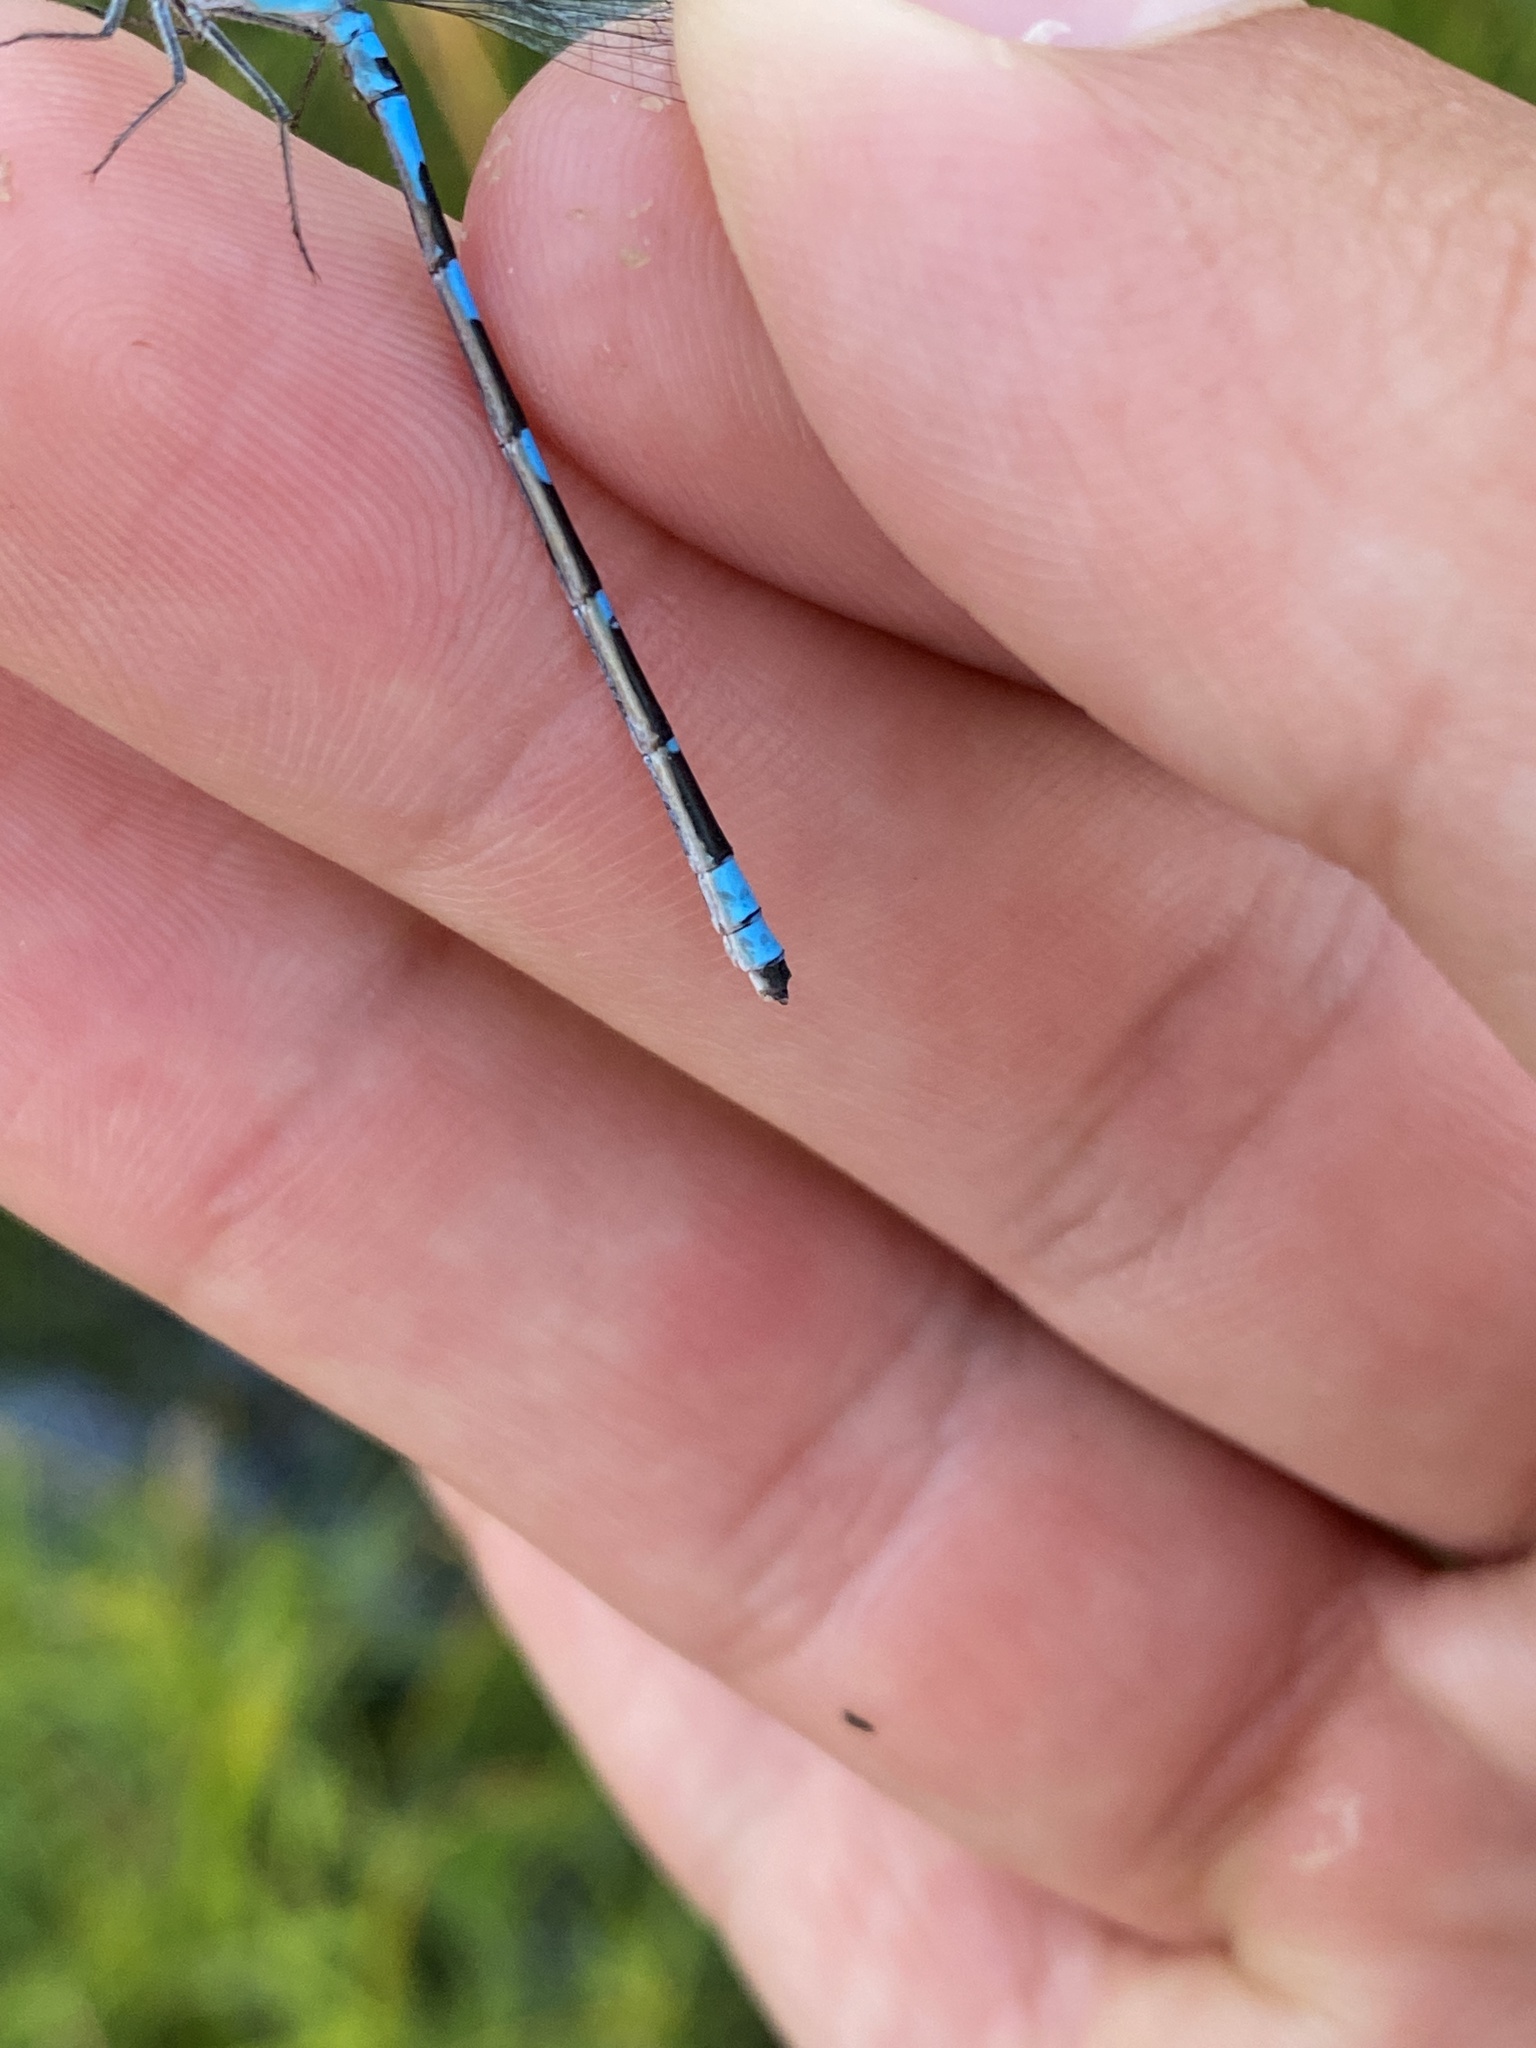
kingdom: Animalia
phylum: Arthropoda
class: Insecta
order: Odonata
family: Coenagrionidae
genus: Enallagma
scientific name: Enallagma carunculatum
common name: Tule bluet
